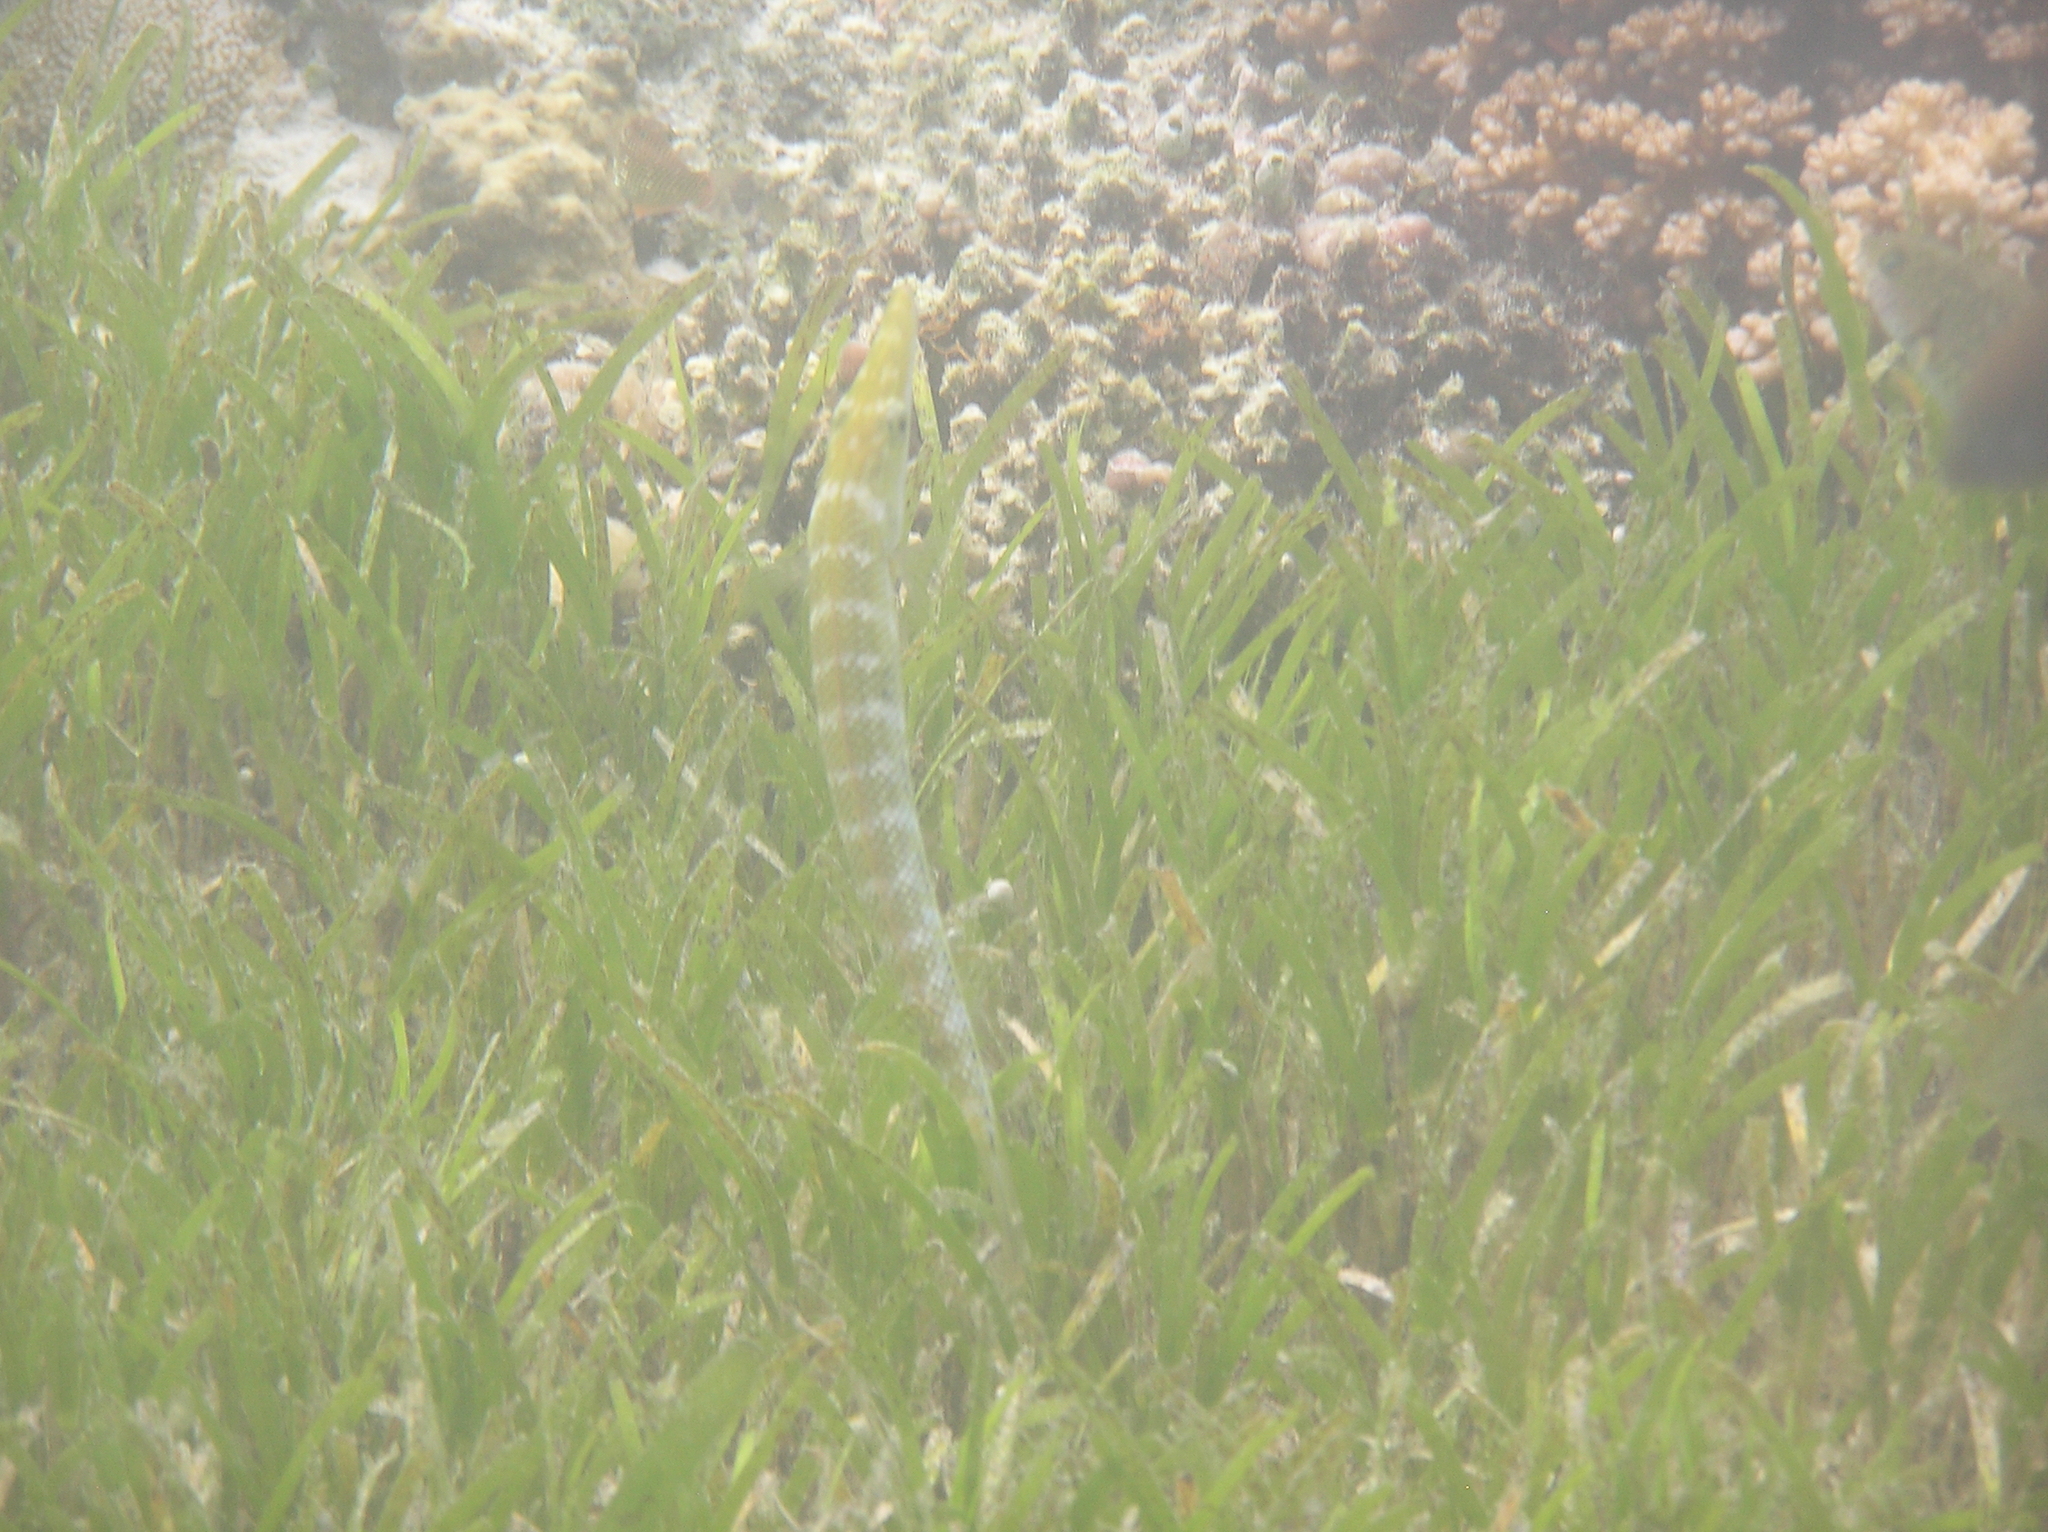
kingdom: Animalia
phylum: Chordata
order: Perciformes
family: Labridae
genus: Cheilio
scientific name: Cheilio inermis
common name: Cigar wrasse
